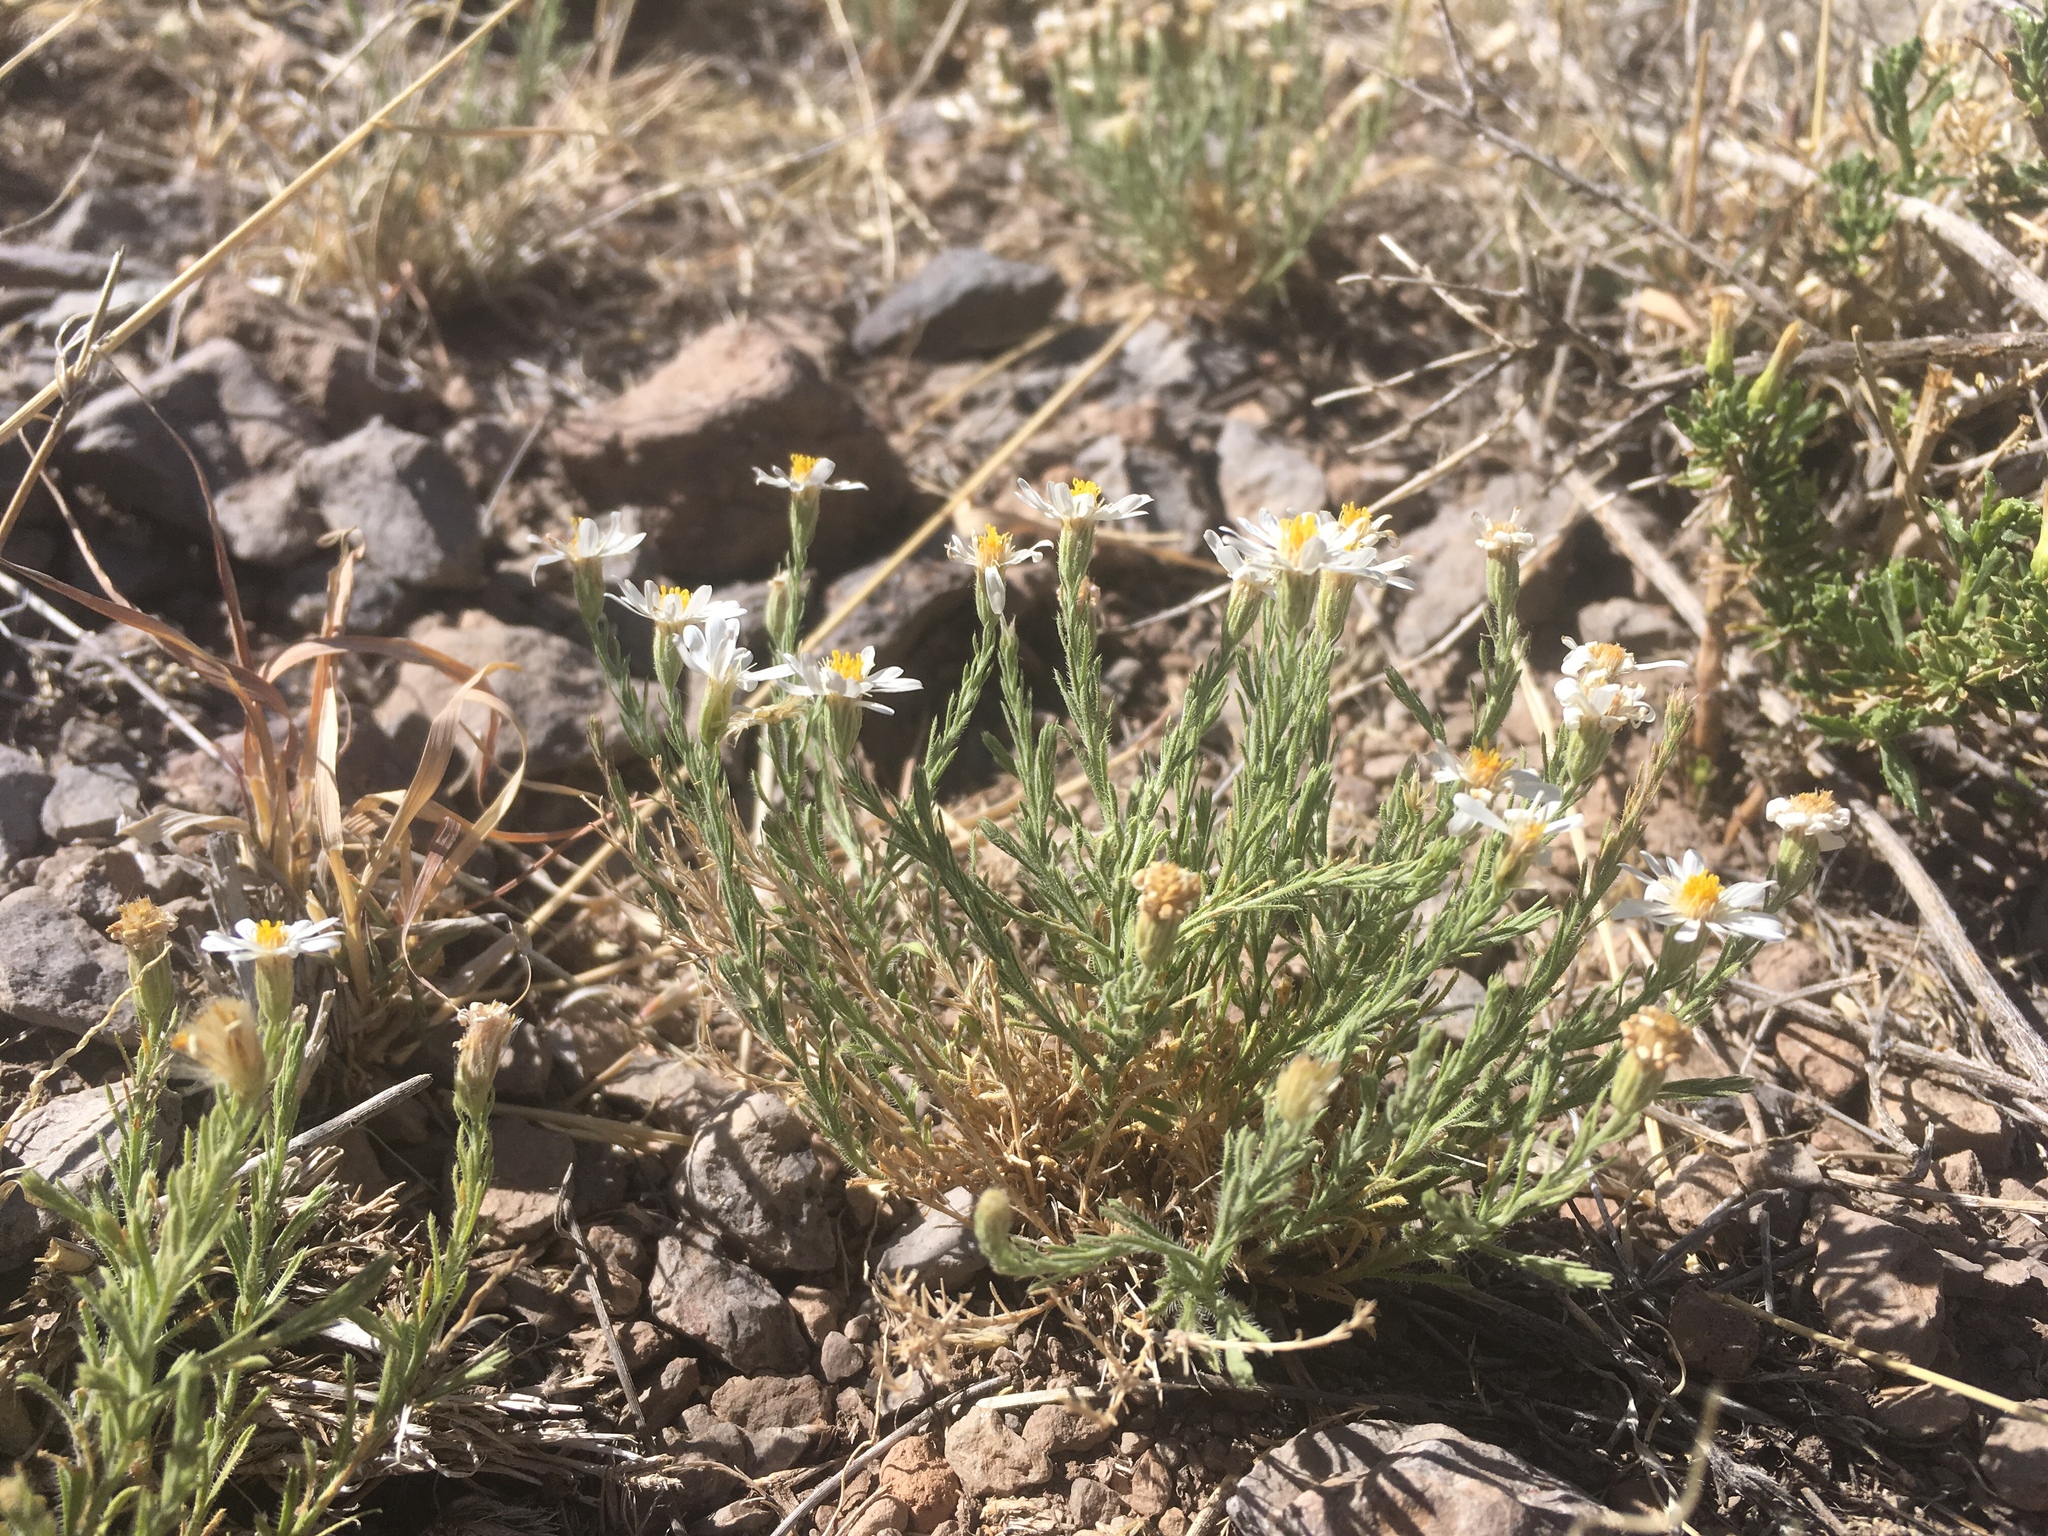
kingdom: Plantae
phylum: Tracheophyta
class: Magnoliopsida
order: Asterales
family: Asteraceae
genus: Chaetopappa
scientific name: Chaetopappa ericoides
